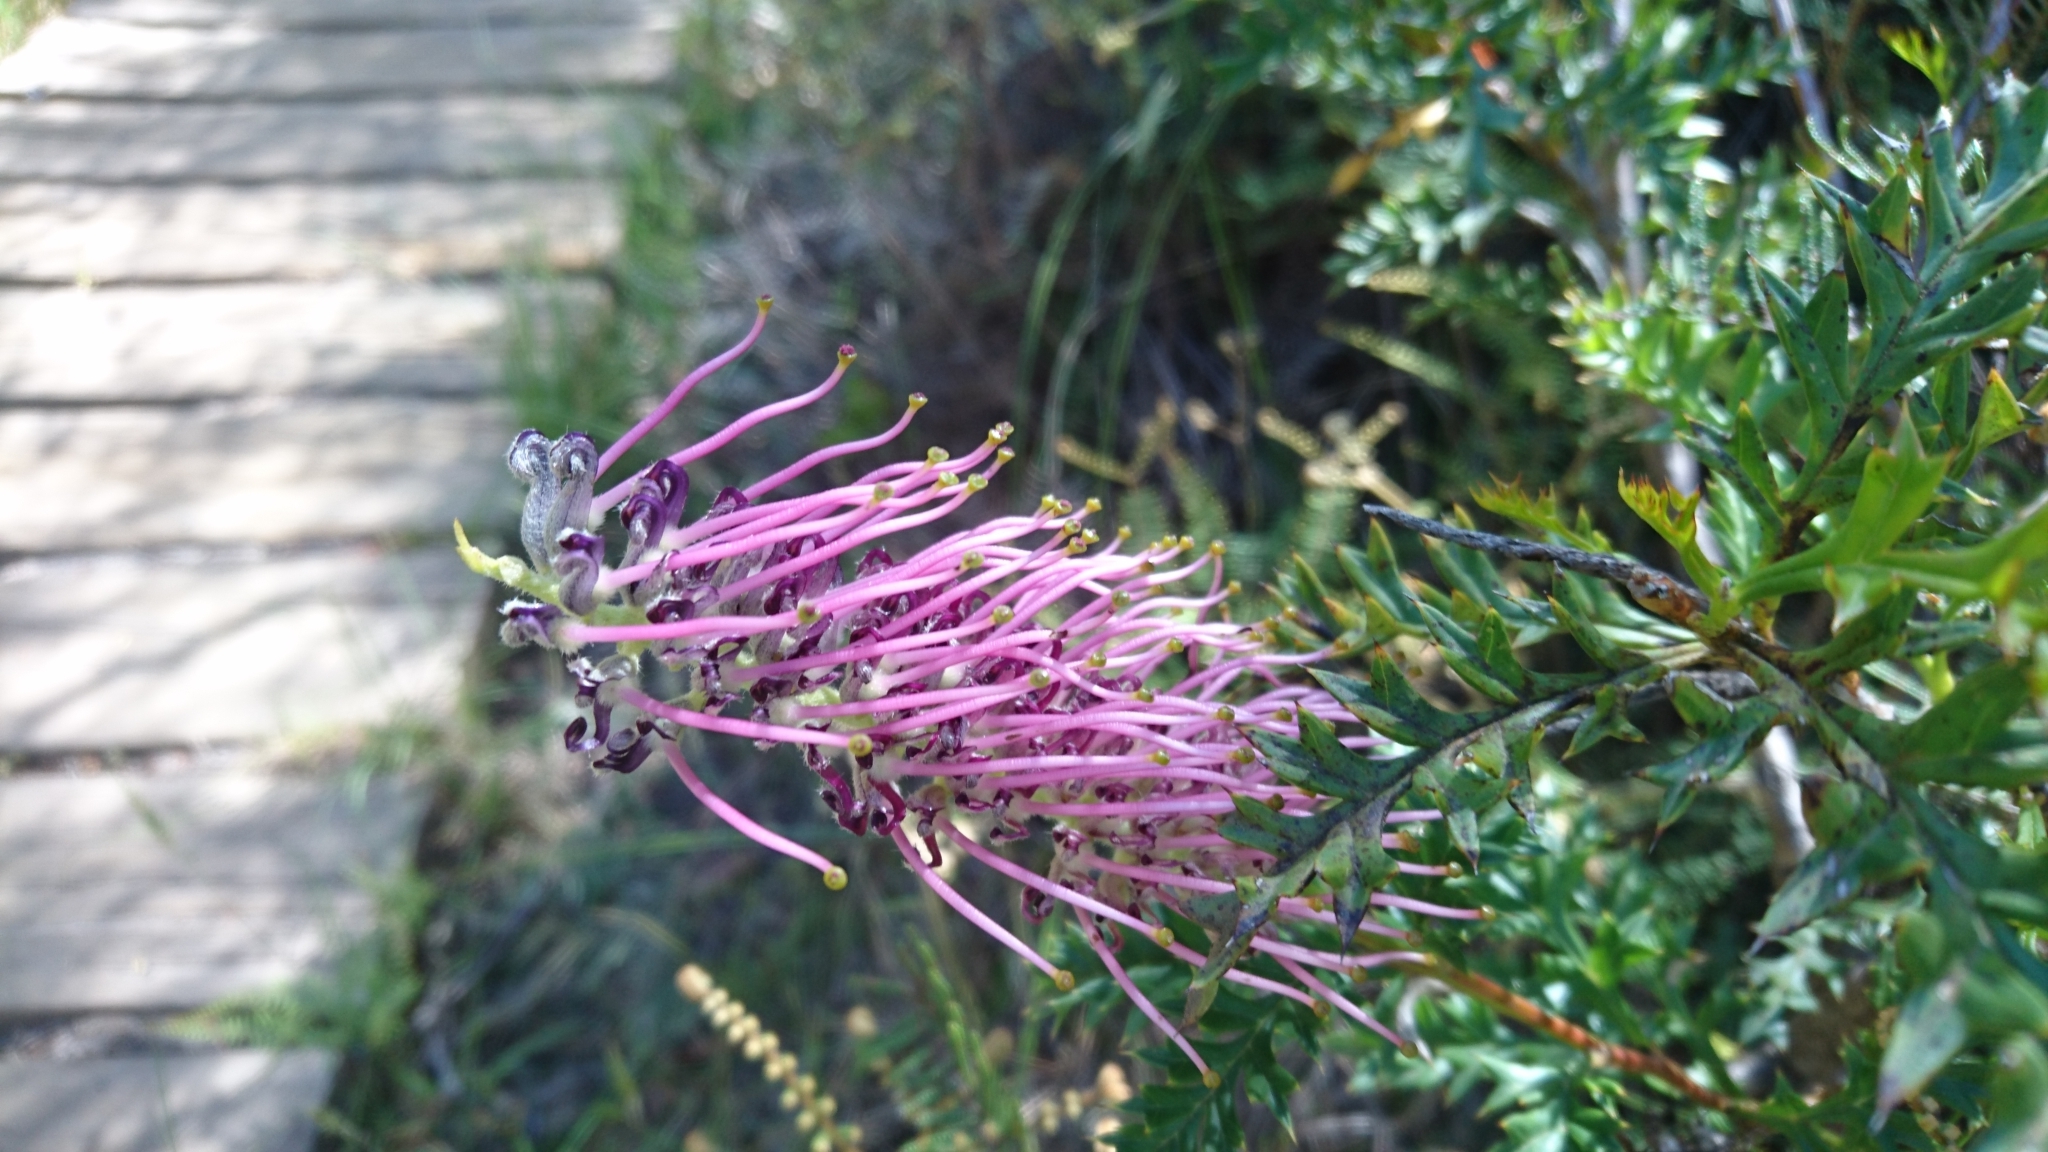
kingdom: Plantae
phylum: Tracheophyta
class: Magnoliopsida
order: Proteales
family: Proteaceae
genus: Grevillea
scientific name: Grevillea acanthifolia
